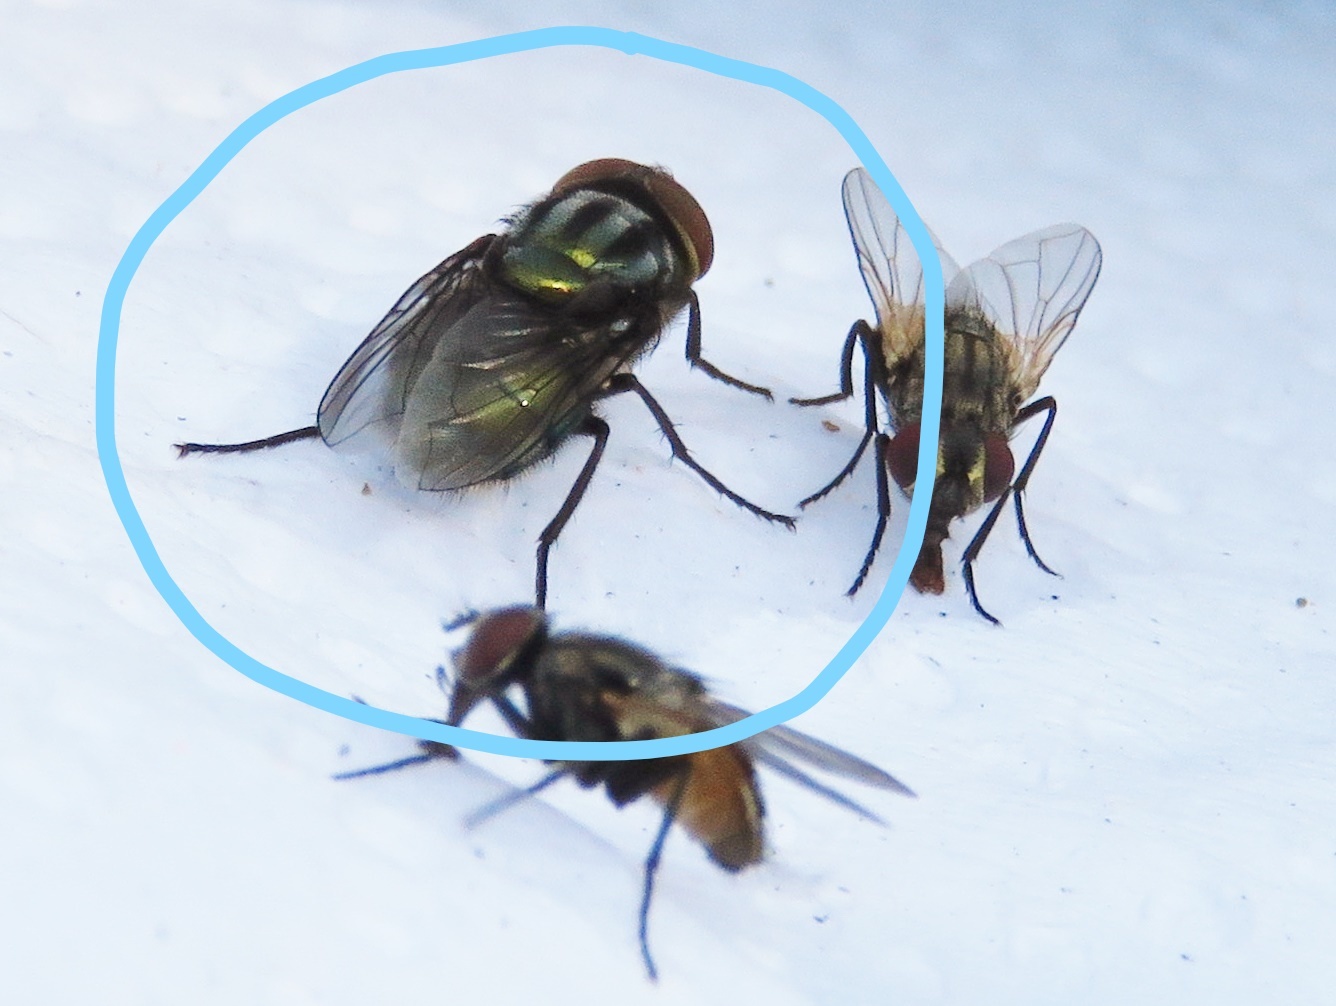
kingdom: Animalia
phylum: Arthropoda
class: Insecta
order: Diptera
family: Calliphoridae
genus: Cochliomyia
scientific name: Cochliomyia macellaria
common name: Secondary screwworm
